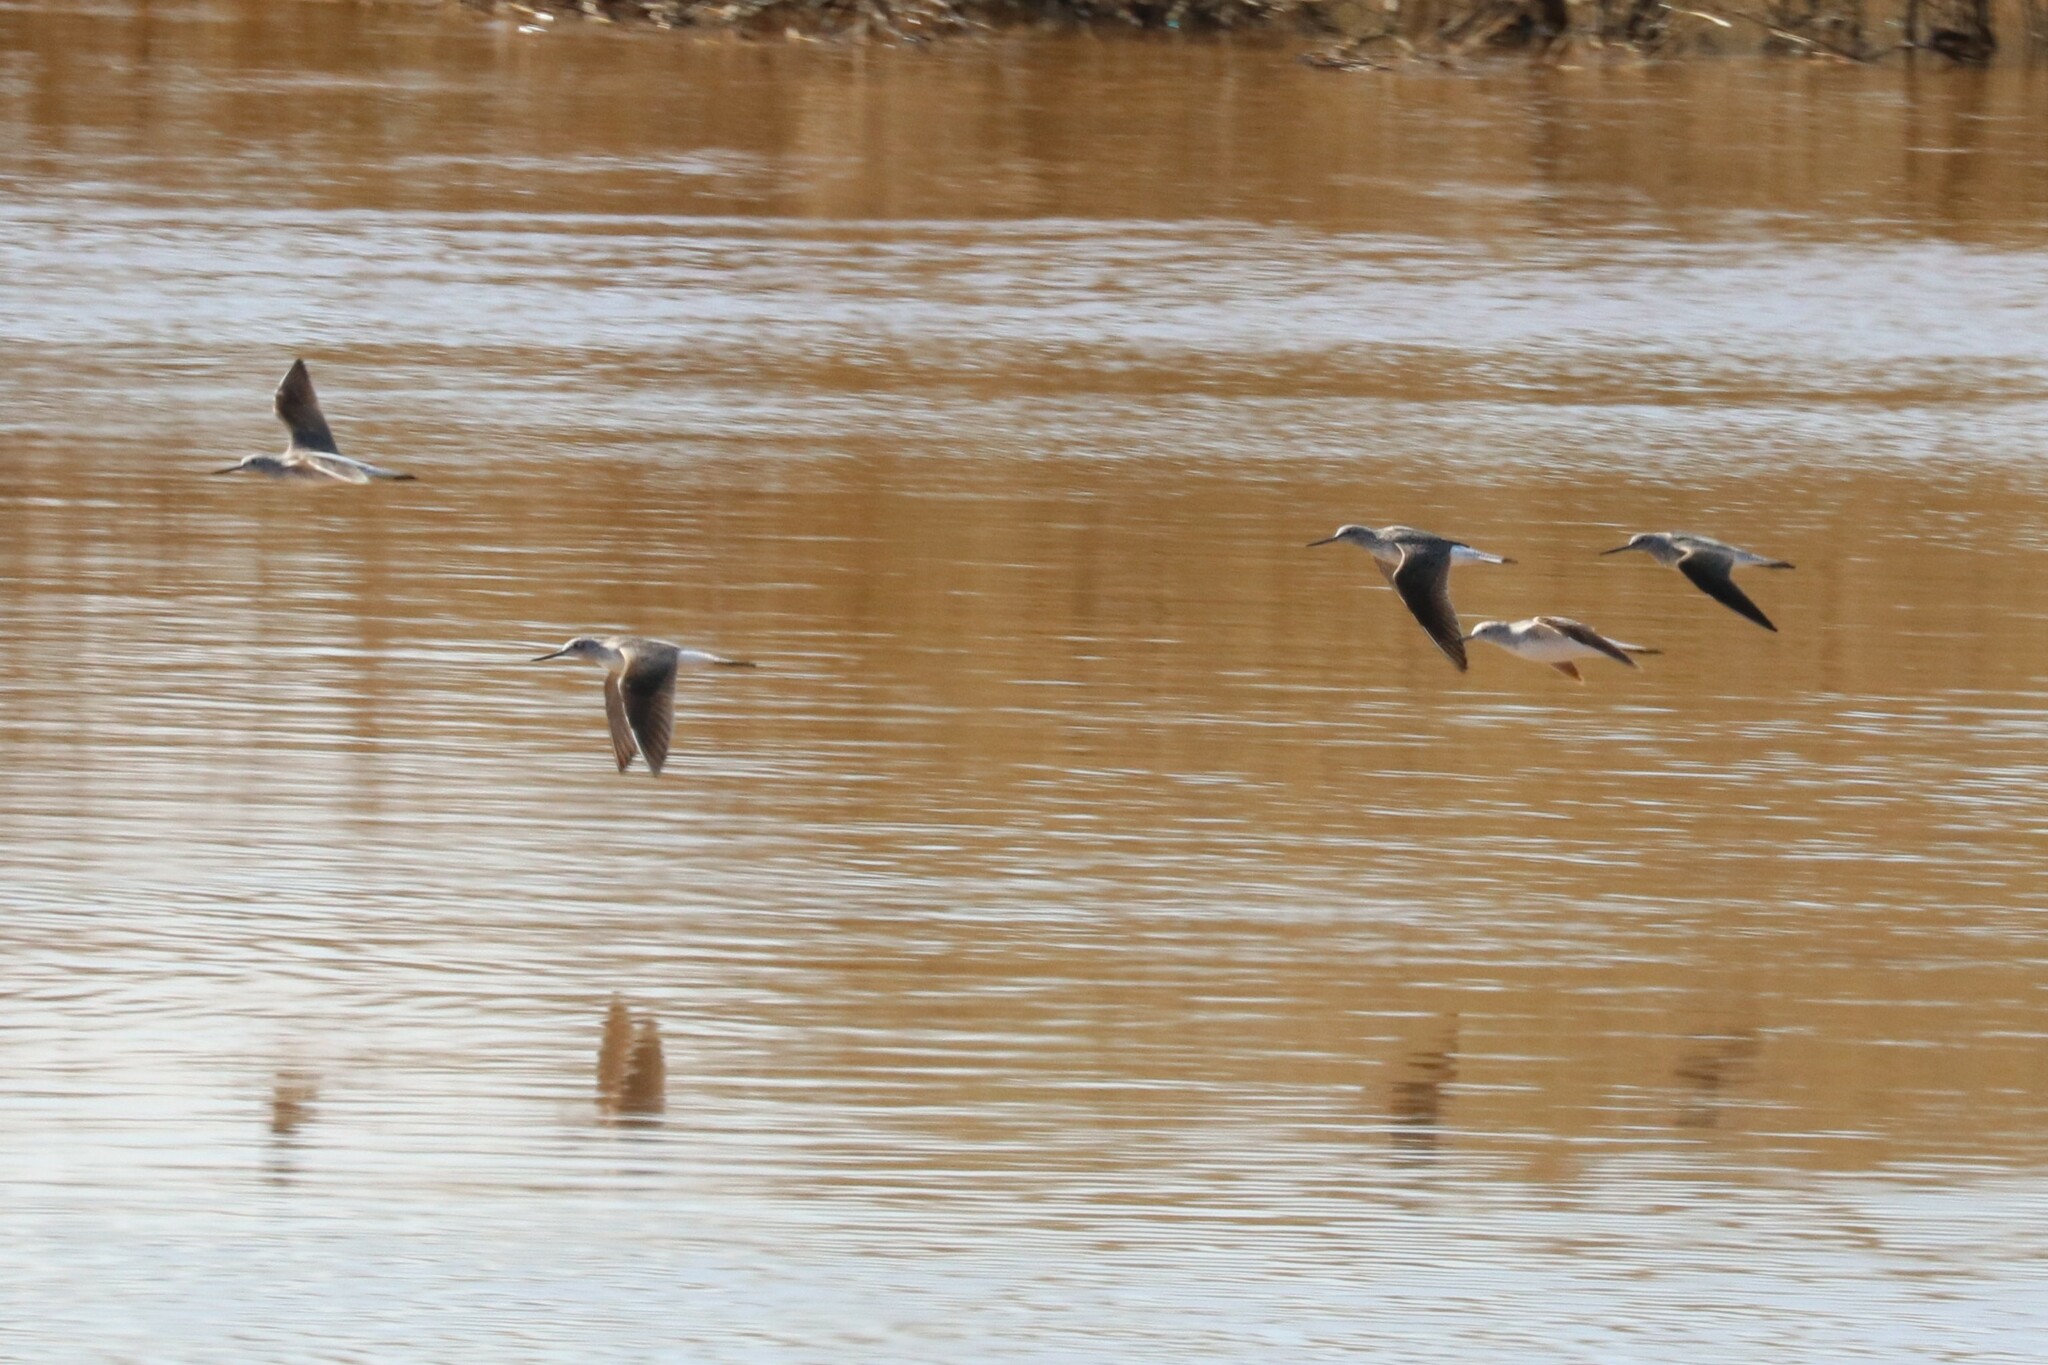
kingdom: Animalia
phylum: Chordata
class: Aves
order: Charadriiformes
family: Scolopacidae
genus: Tringa
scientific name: Tringa nebularia
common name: Common greenshank
